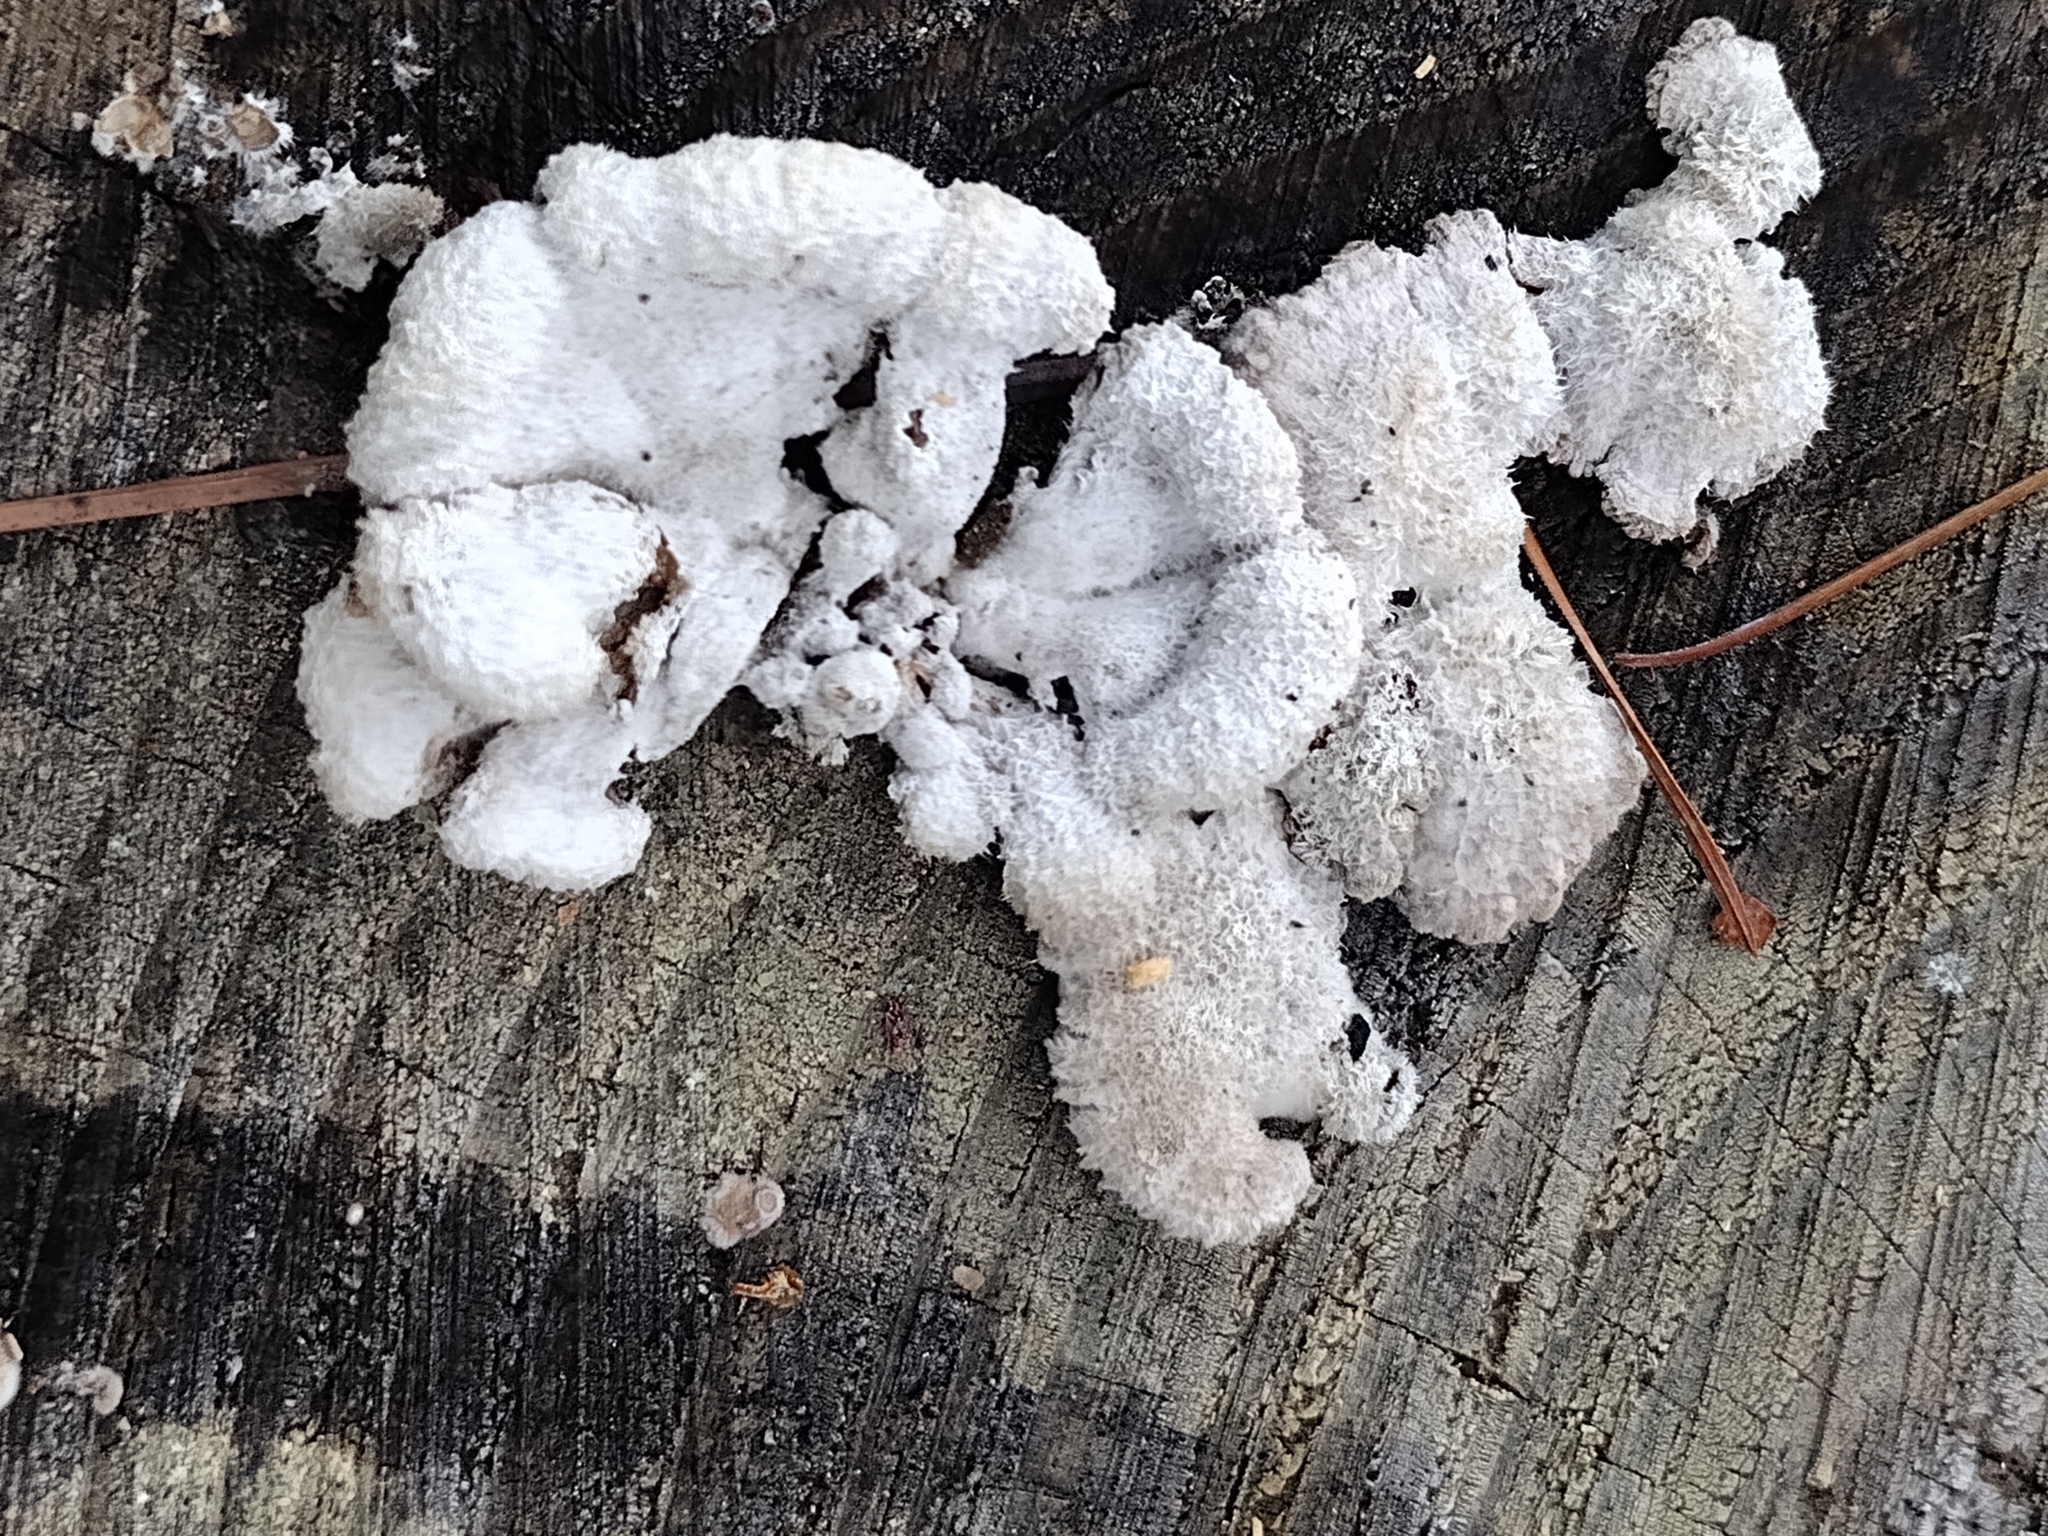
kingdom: Fungi
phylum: Basidiomycota
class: Agaricomycetes
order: Agaricales
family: Schizophyllaceae
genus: Schizophyllum
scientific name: Schizophyllum commune
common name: Common porecrust
